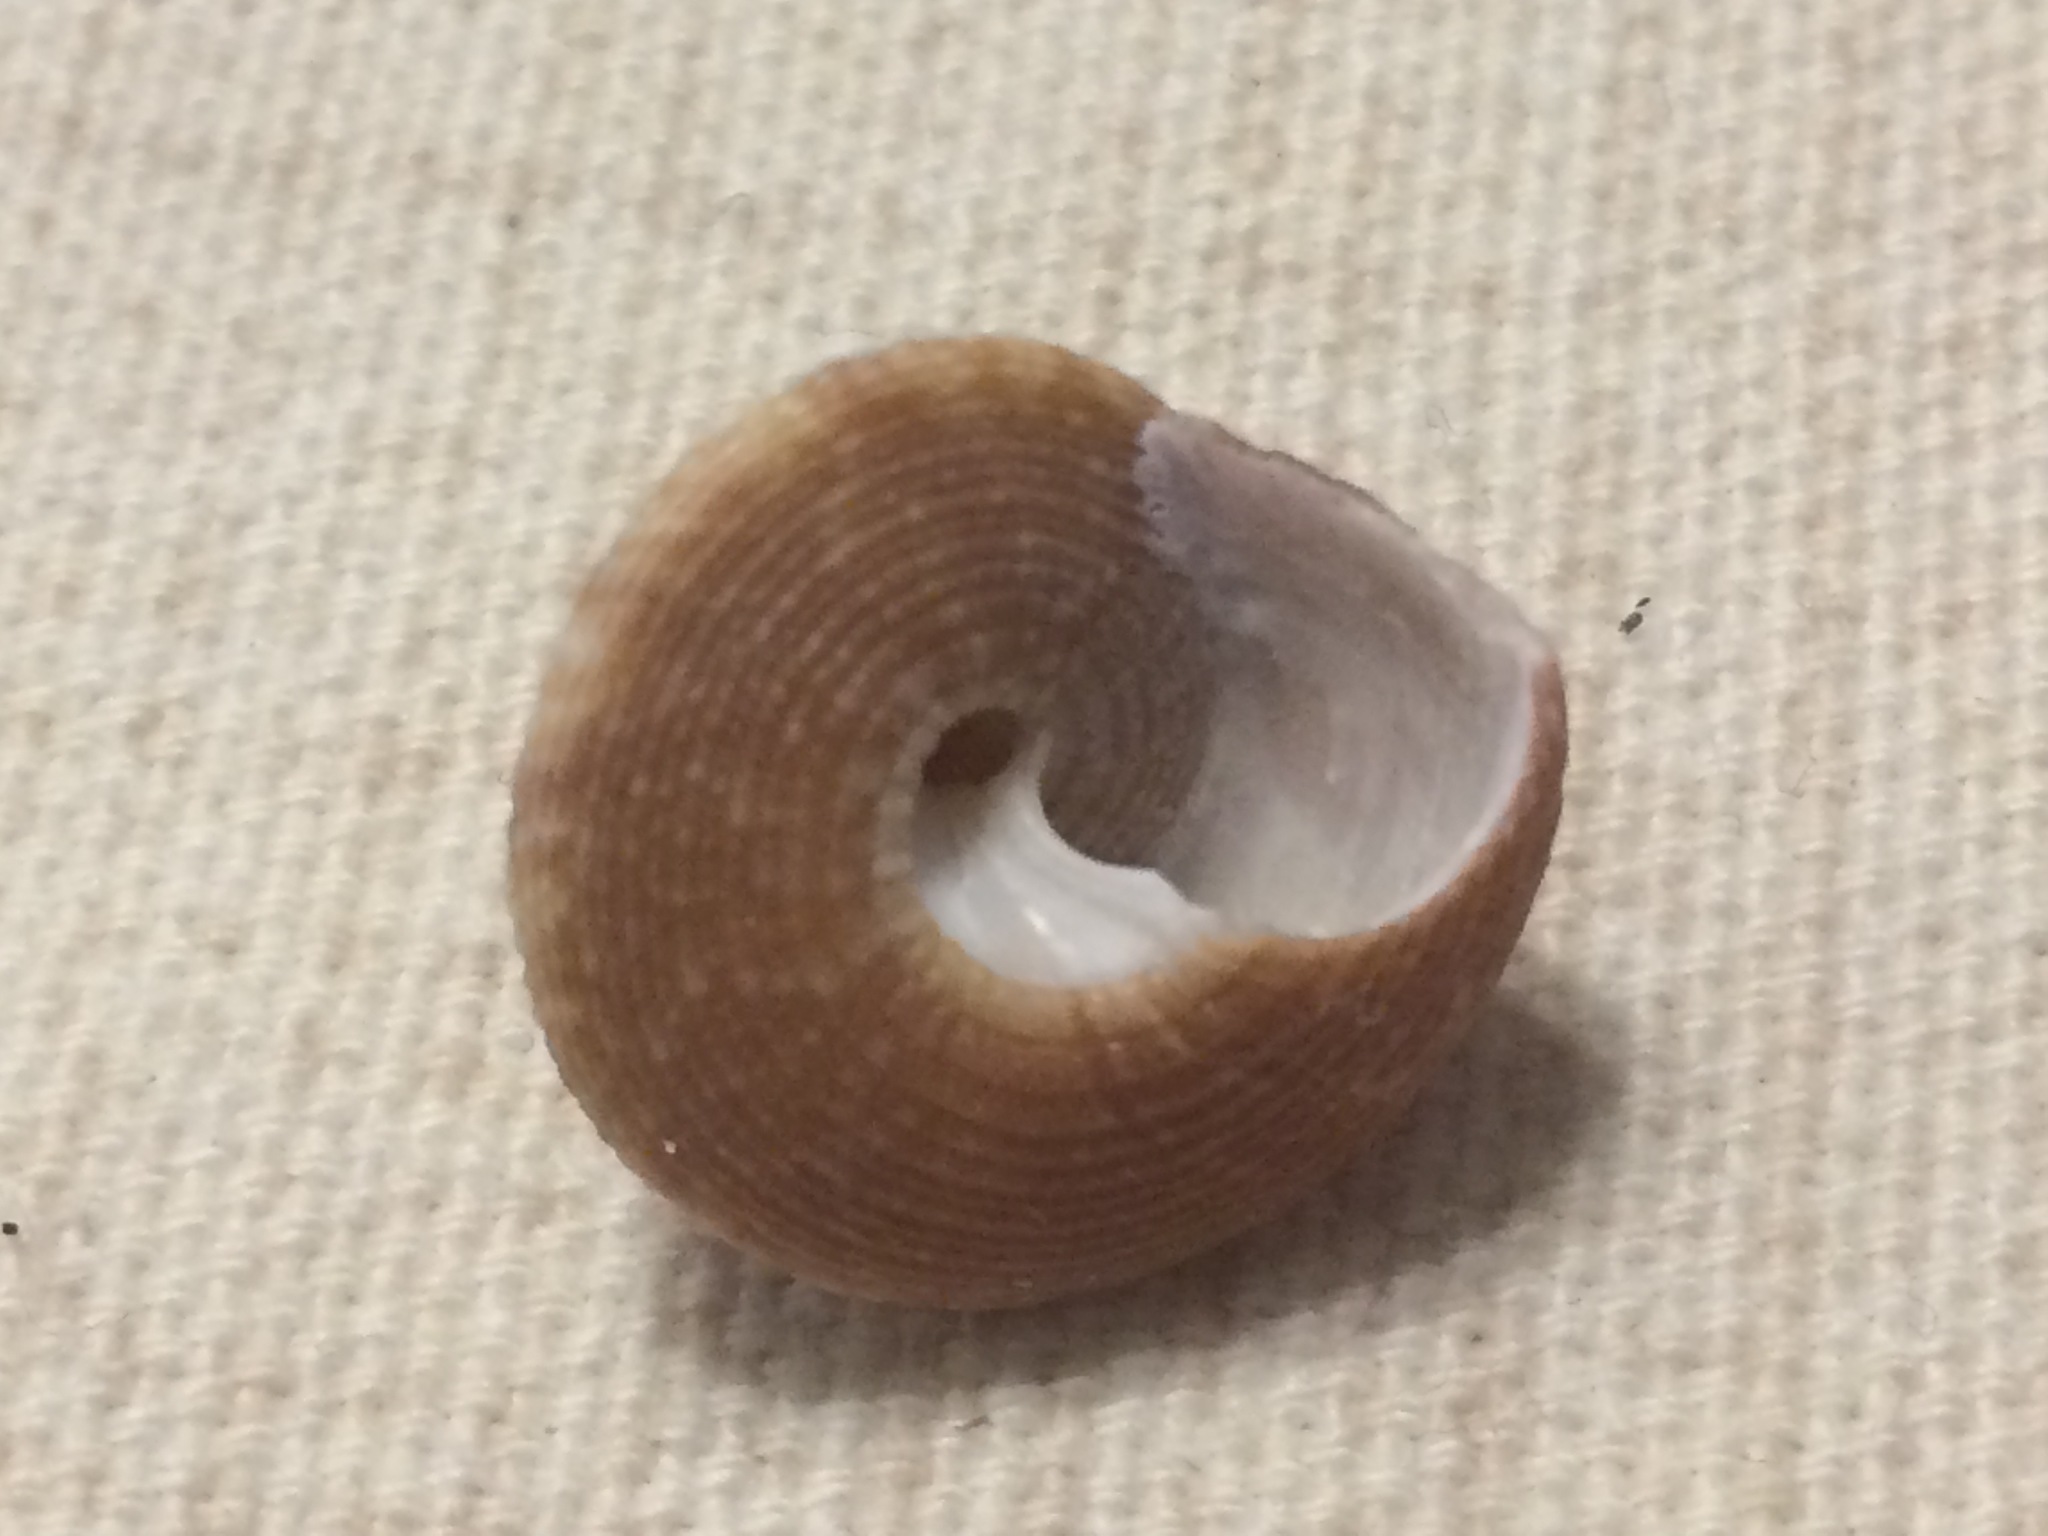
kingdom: Animalia
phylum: Mollusca
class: Gastropoda
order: Trochida
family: Calliostomatidae
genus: Calliostoma
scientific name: Calliostoma tampaense
